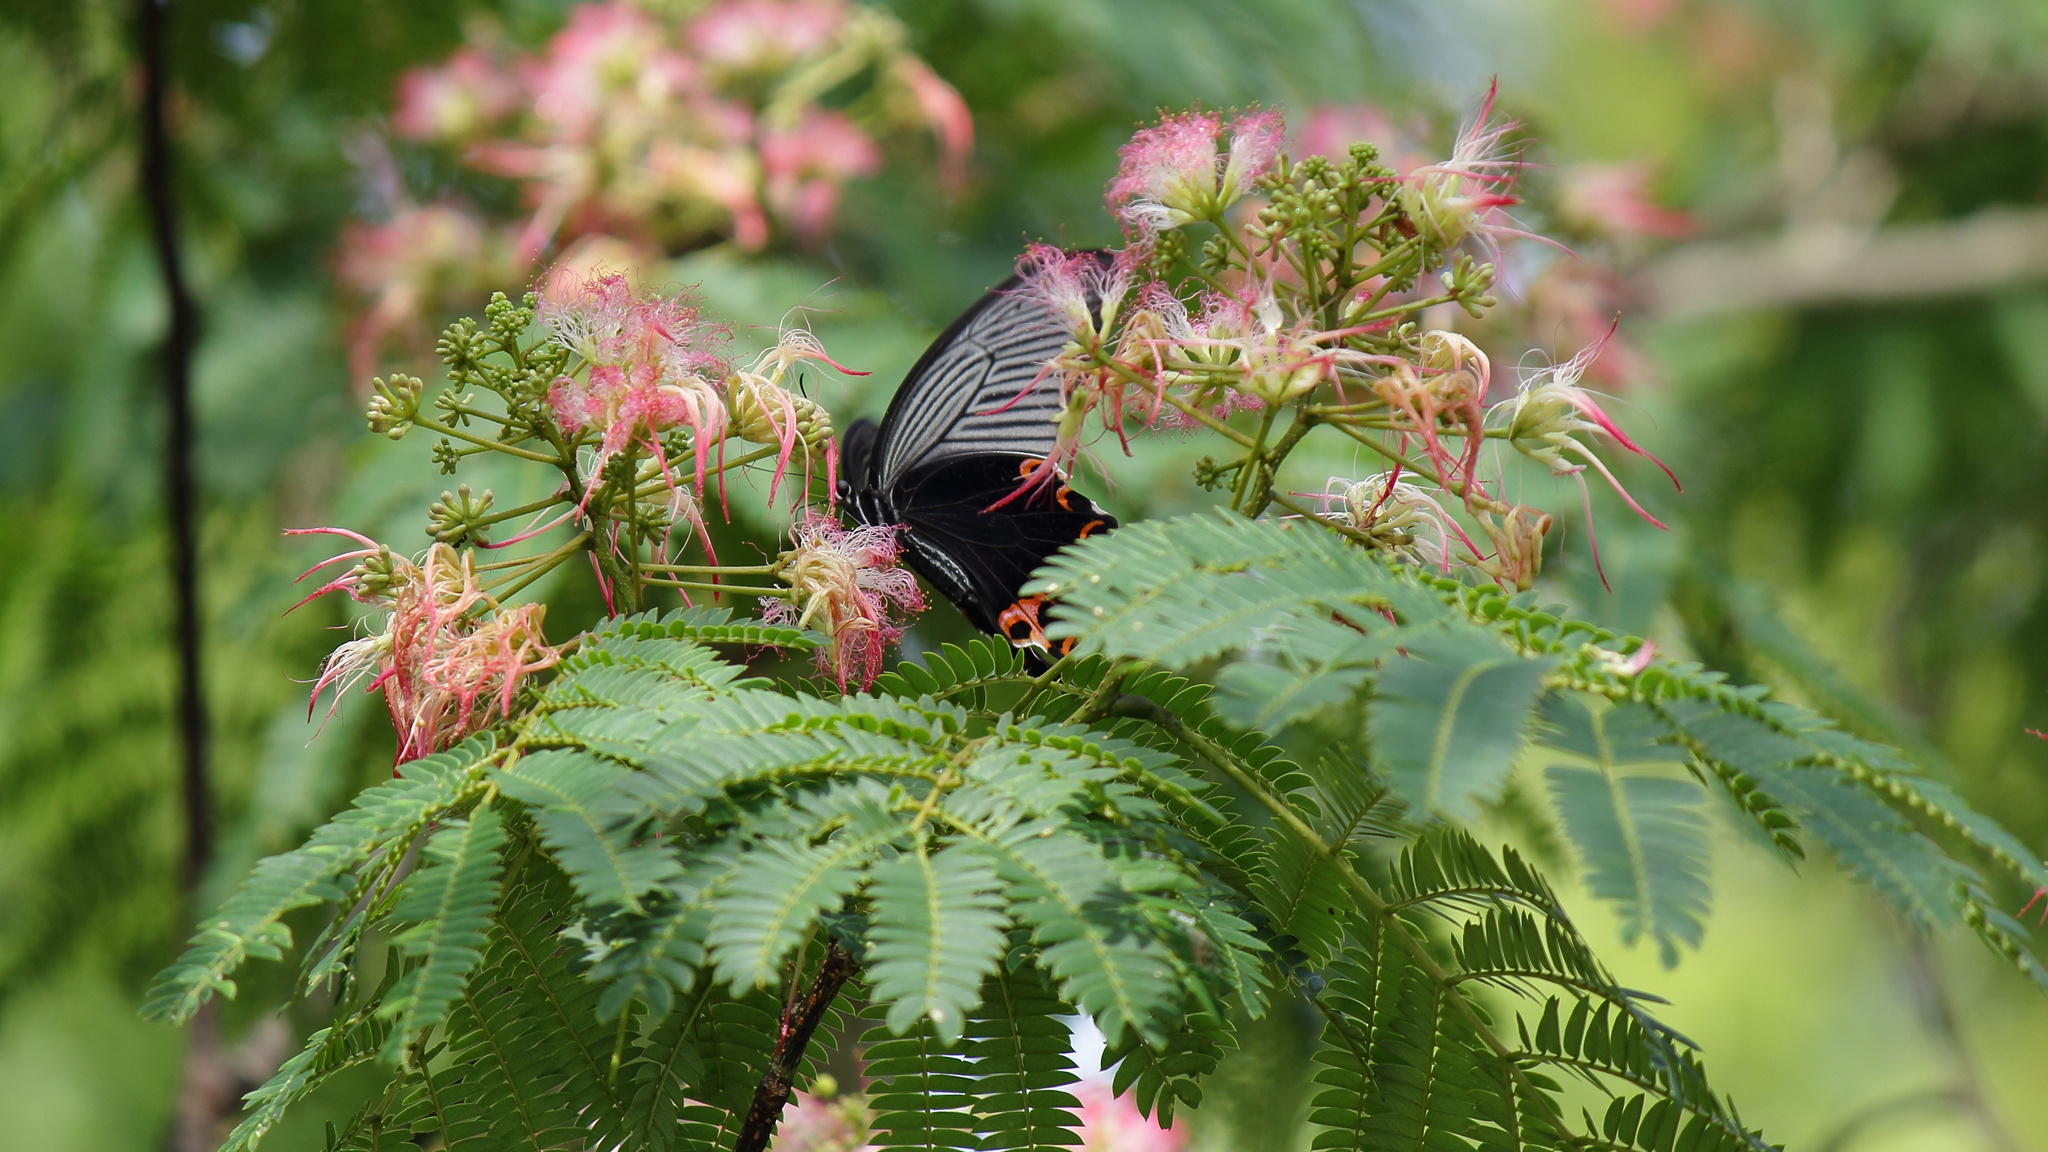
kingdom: Animalia
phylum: Arthropoda
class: Insecta
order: Lepidoptera
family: Papilionidae
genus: Papilio
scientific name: Papilio demetrius
